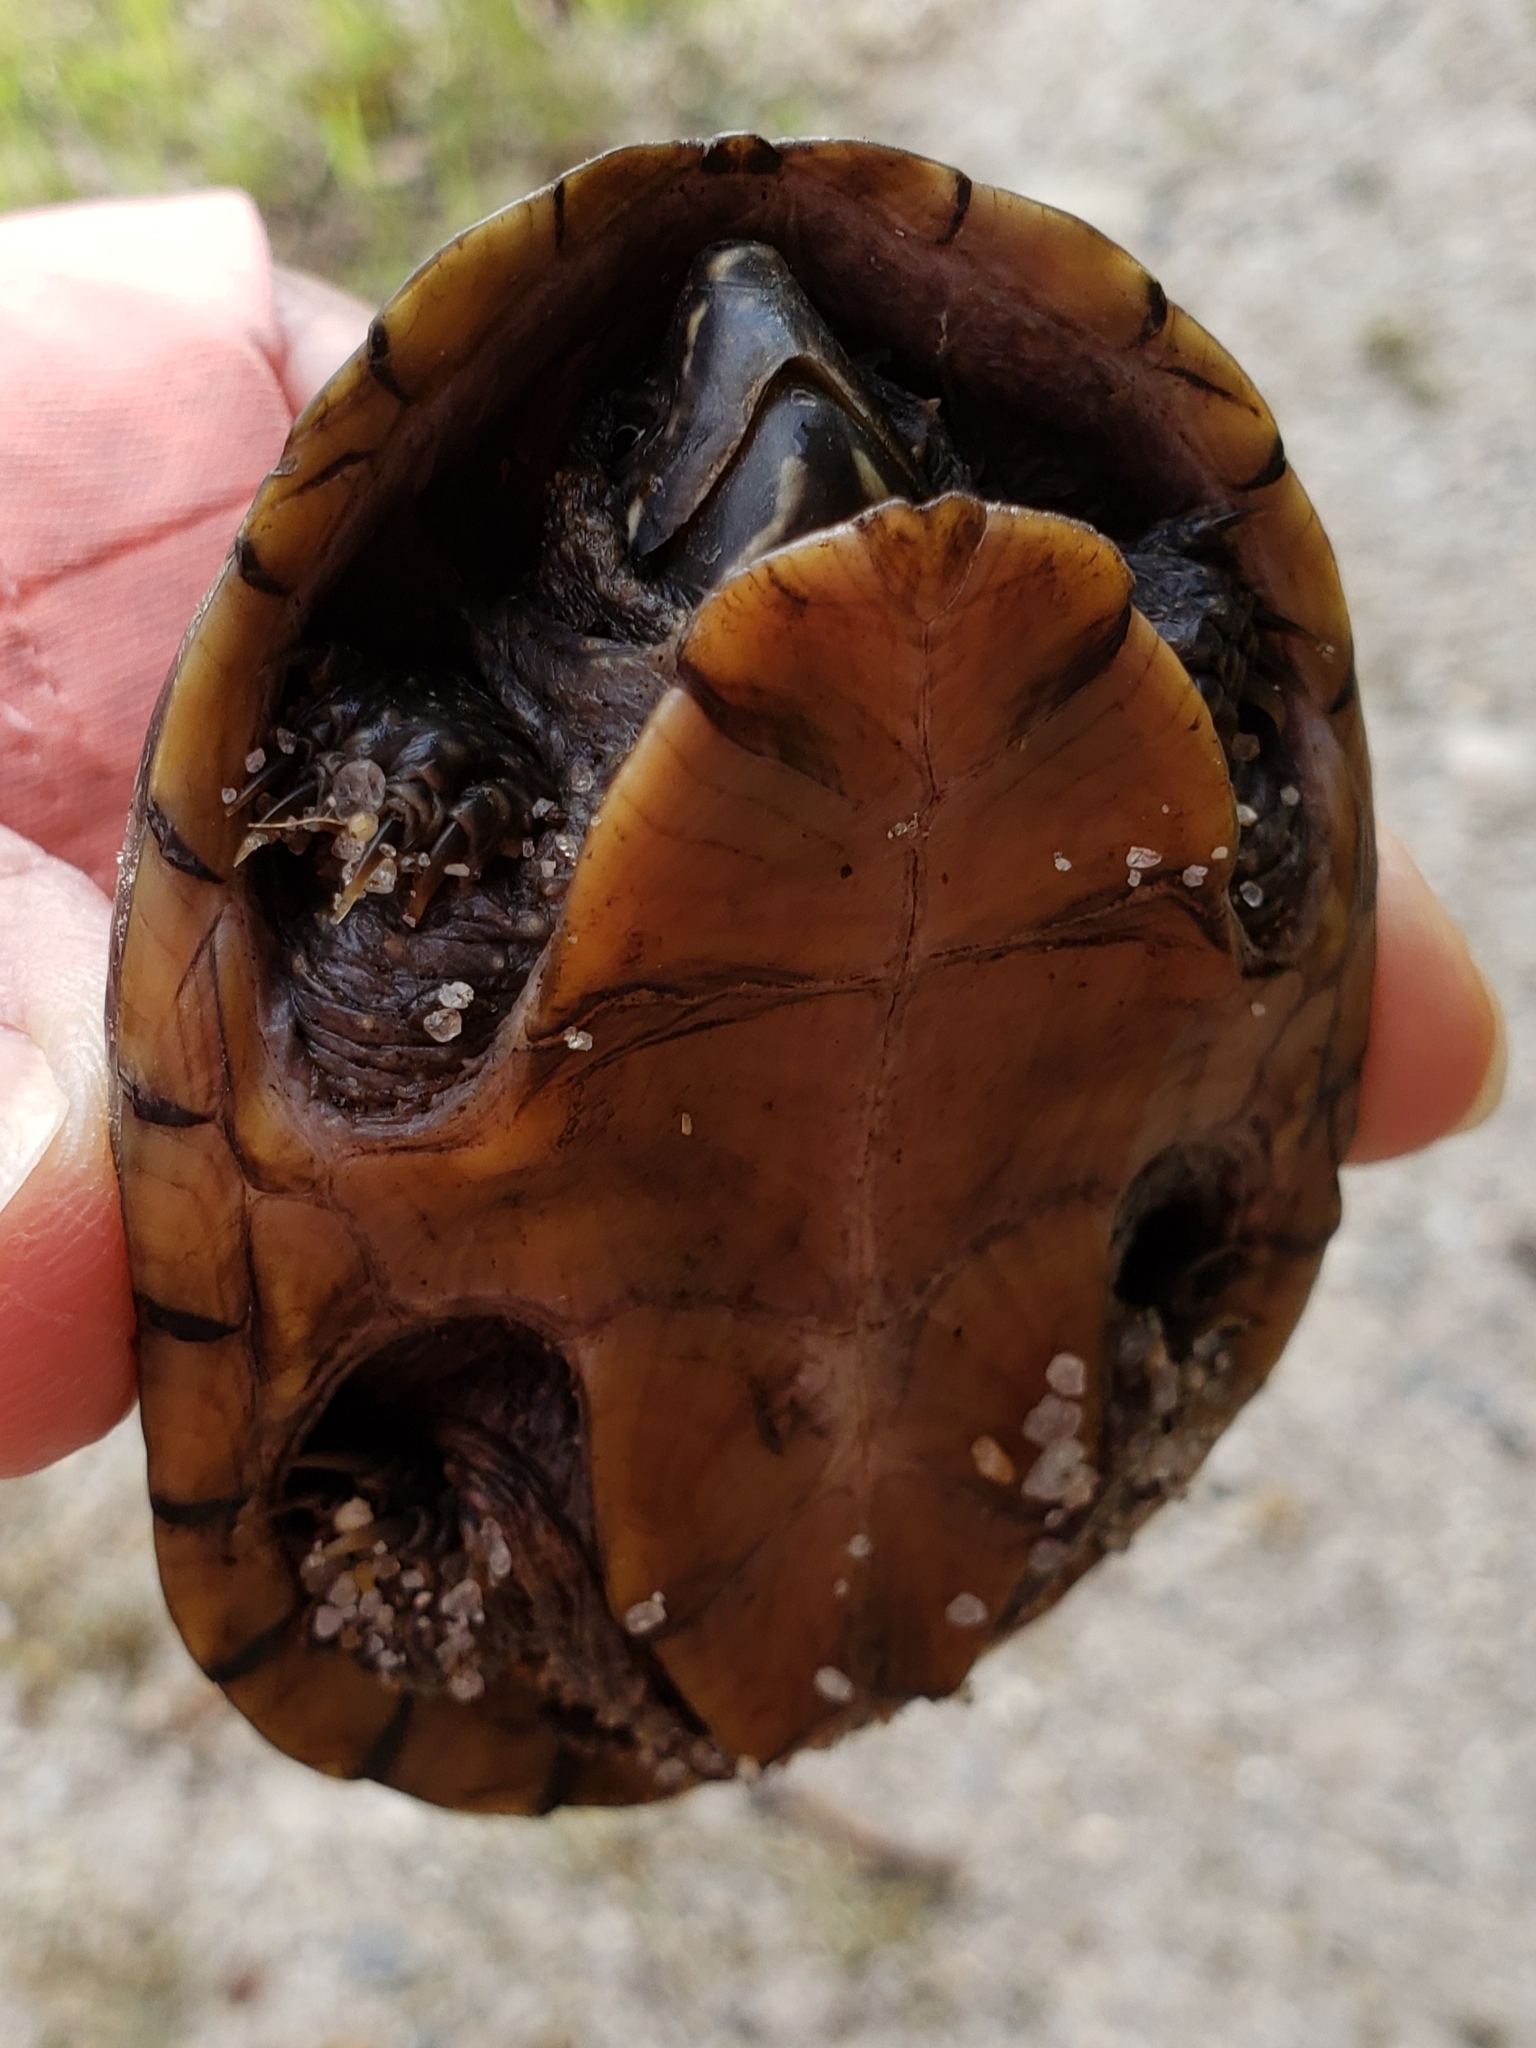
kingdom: Animalia
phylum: Chordata
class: Testudines
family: Kinosternidae
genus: Sternotherus
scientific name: Sternotherus odoratus
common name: Common musk turtle
